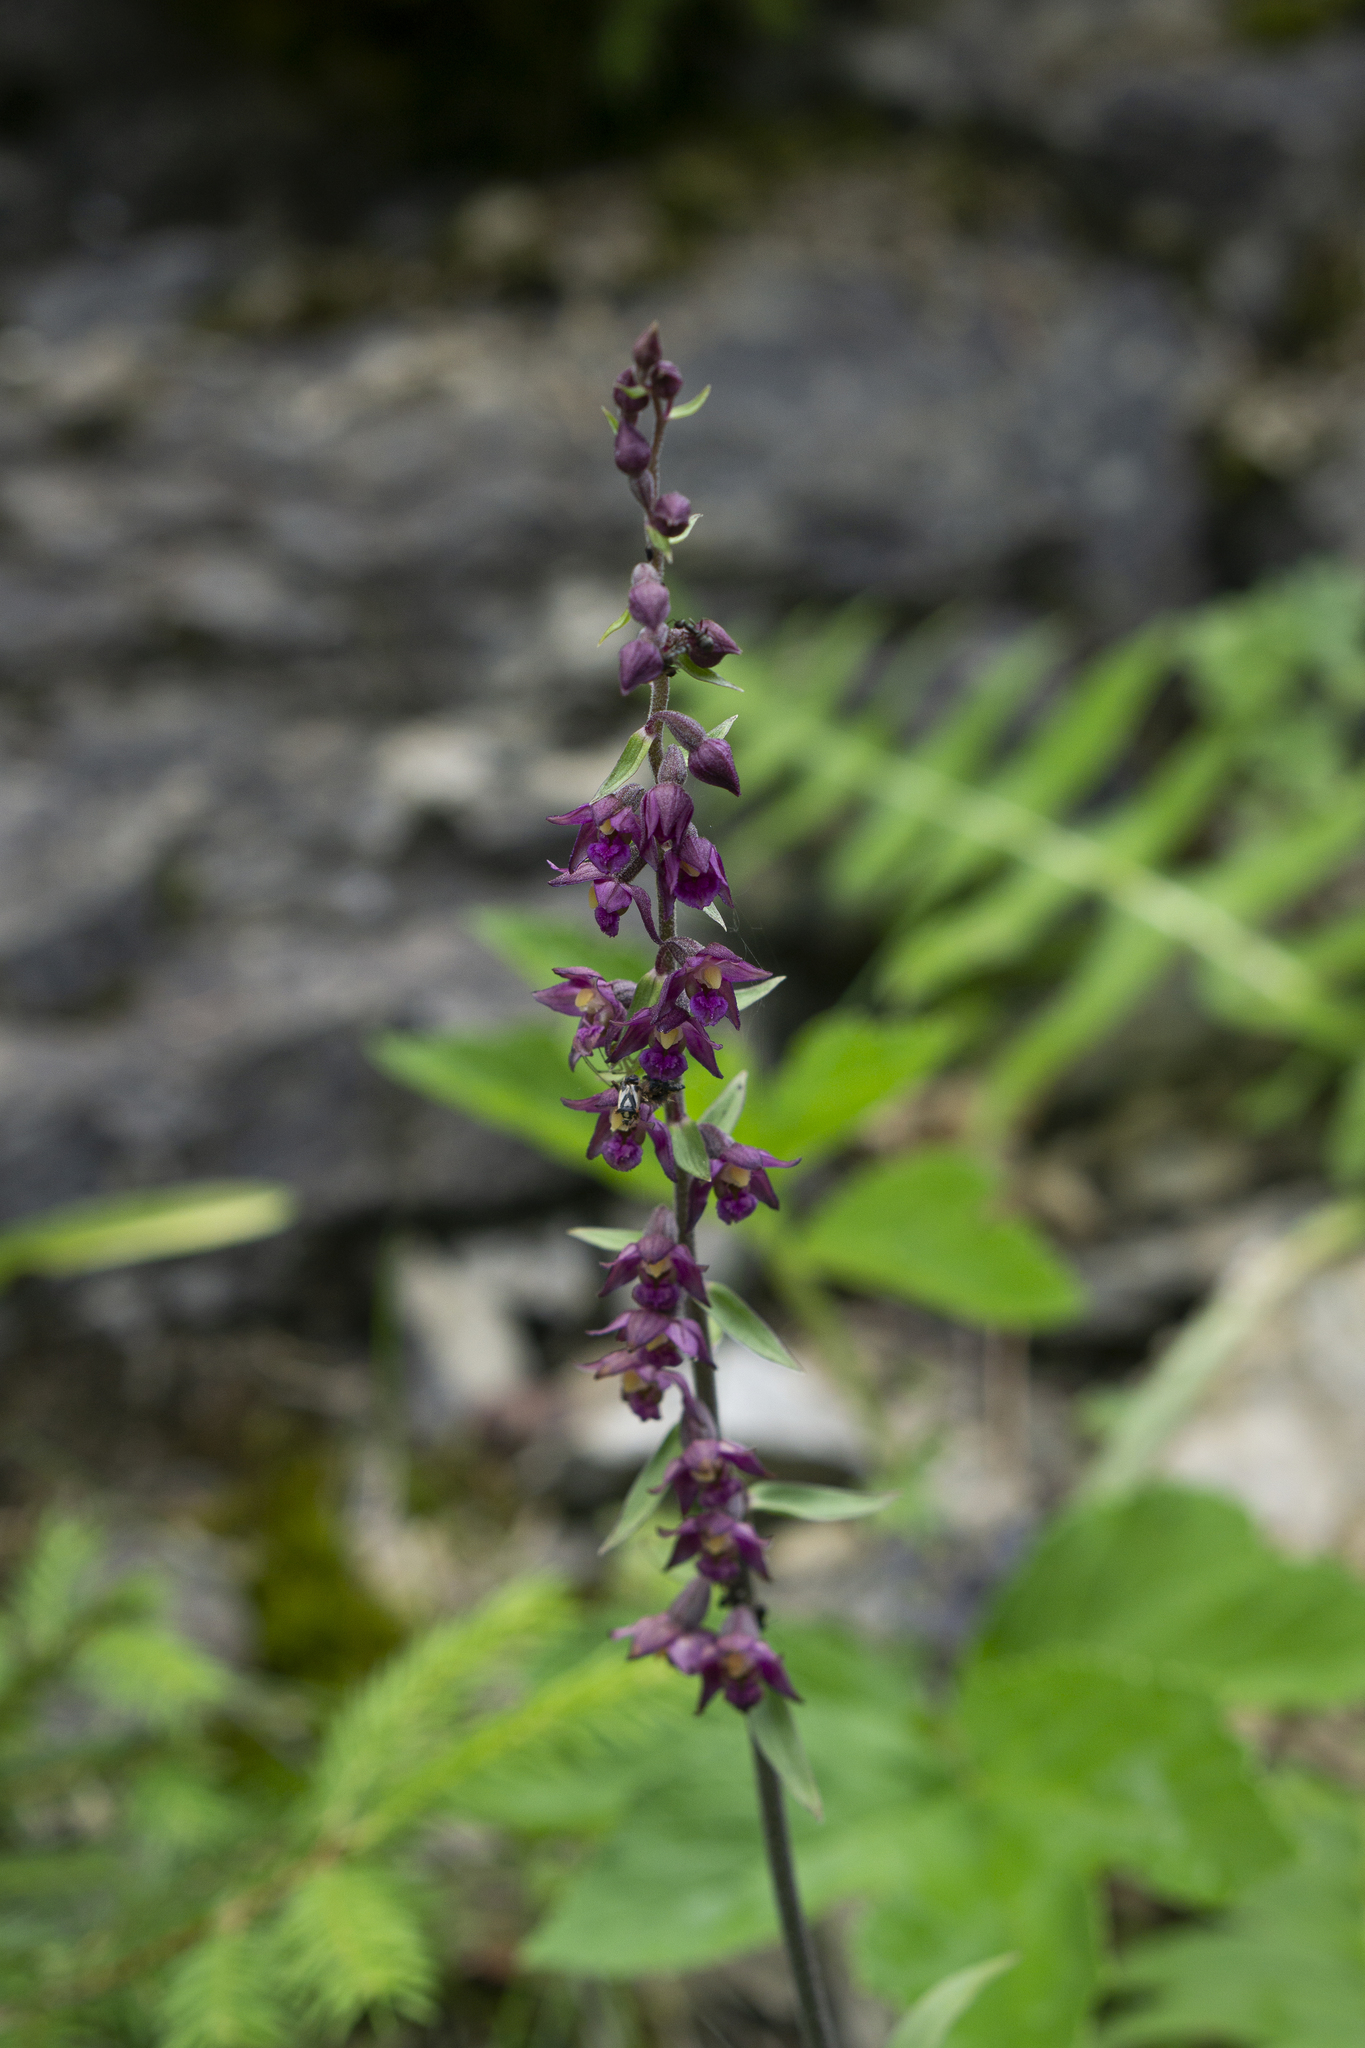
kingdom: Plantae
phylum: Tracheophyta
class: Liliopsida
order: Asparagales
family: Orchidaceae
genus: Epipactis
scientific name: Epipactis atrorubens
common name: Dark-red helleborine
